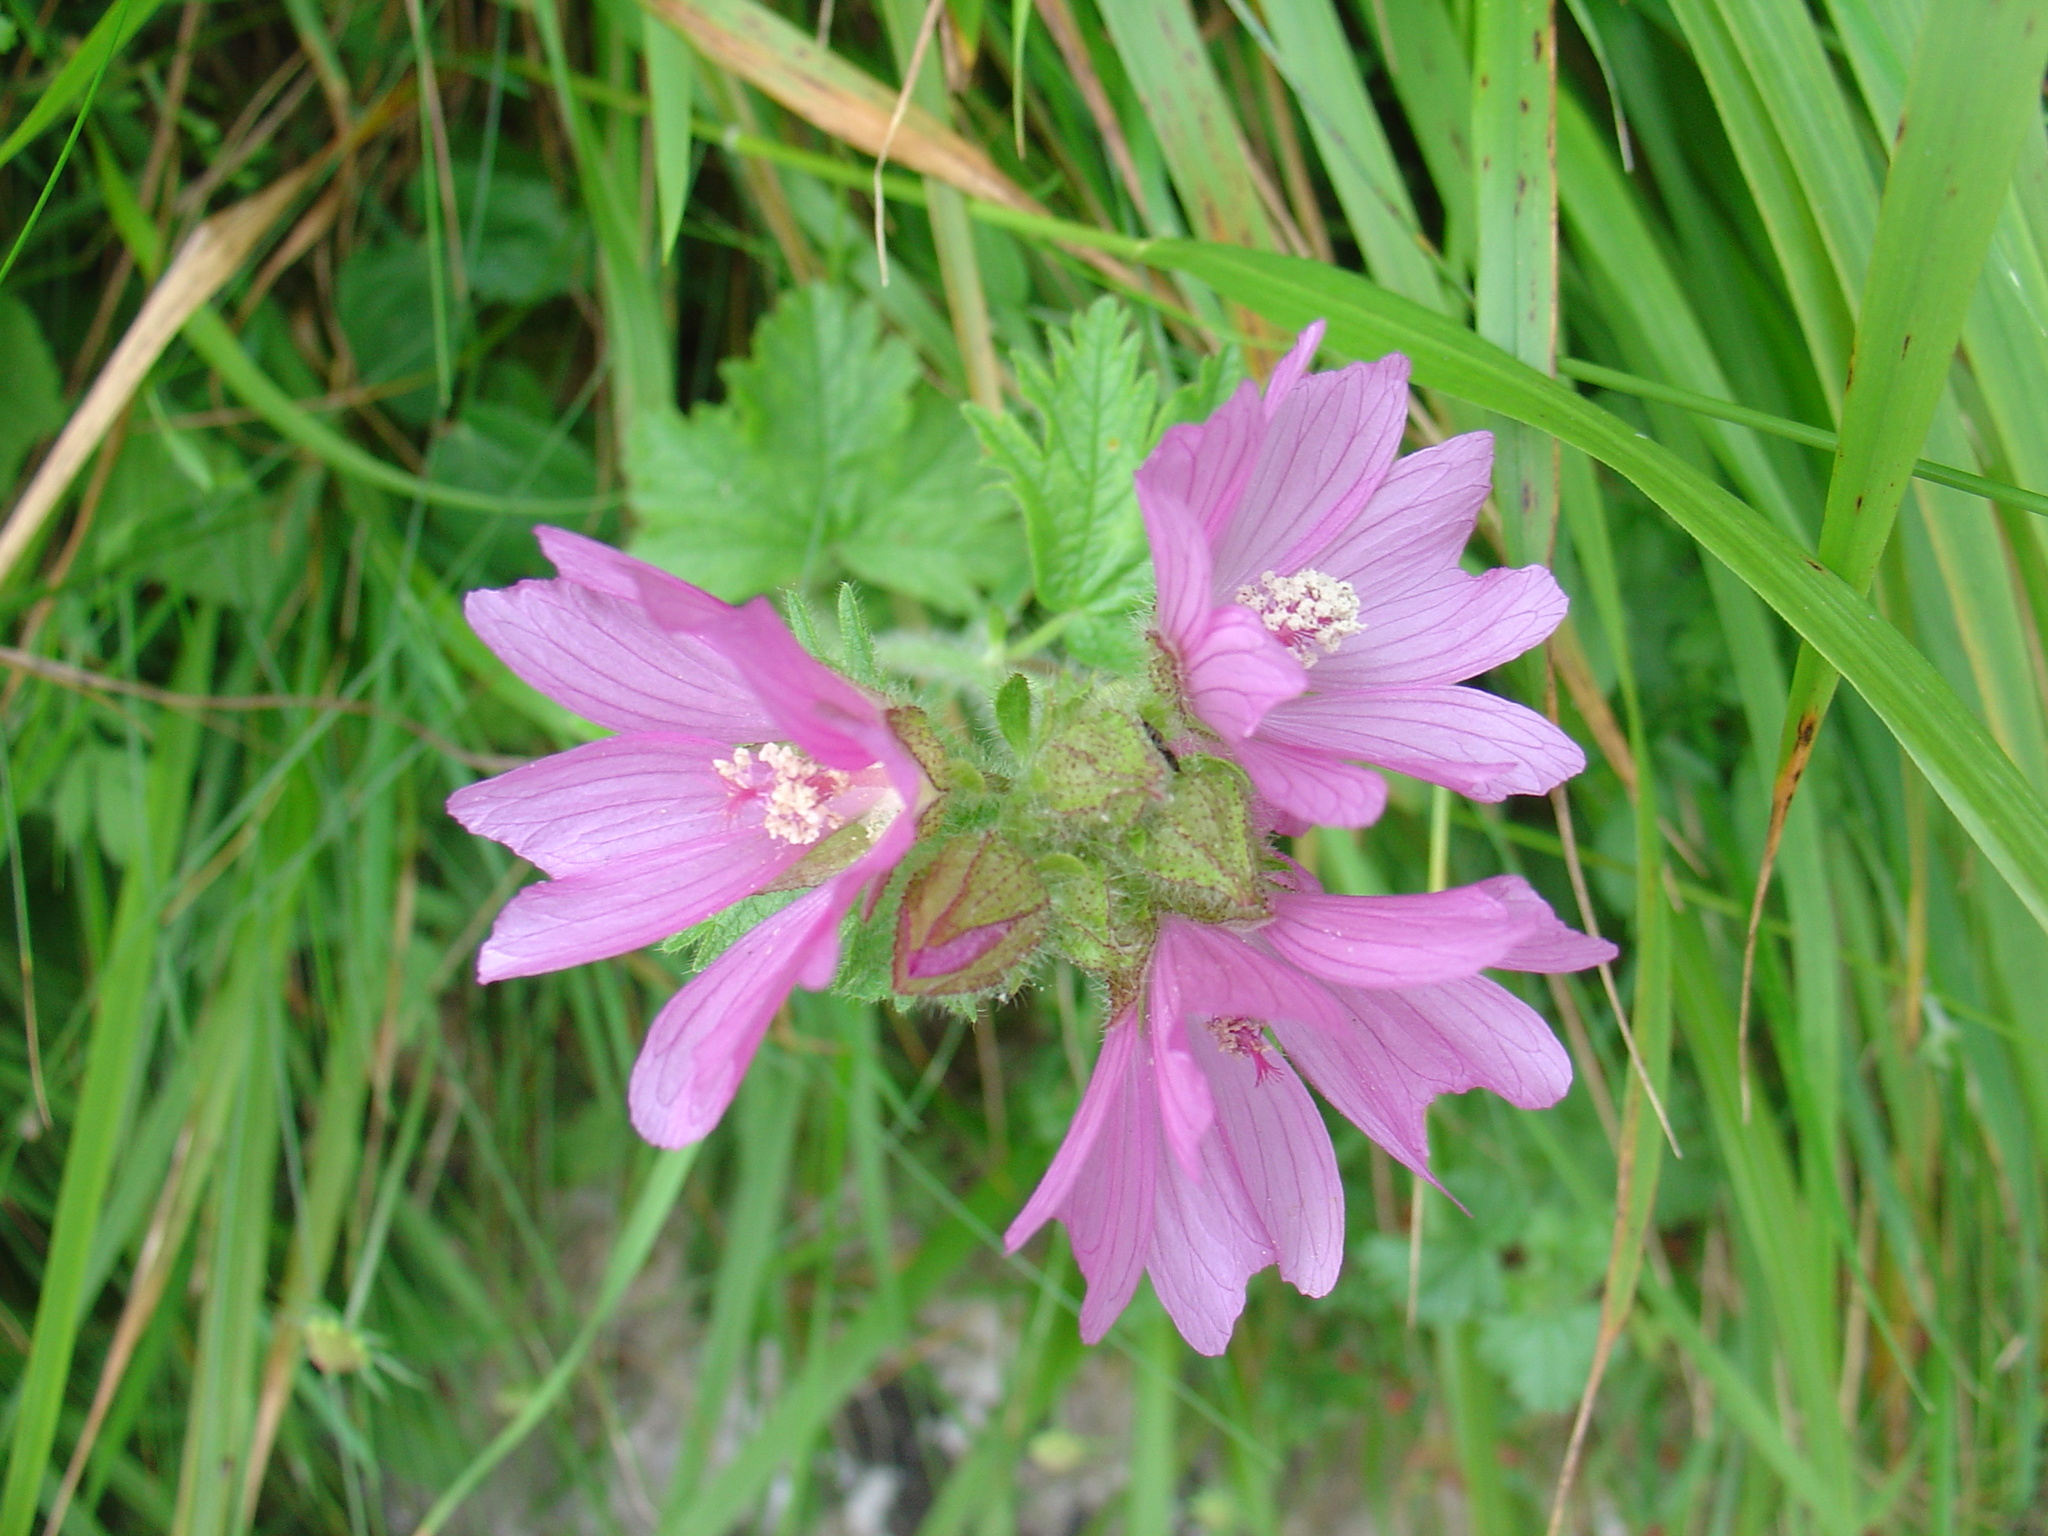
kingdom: Plantae
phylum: Tracheophyta
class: Magnoliopsida
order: Malvales
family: Malvaceae
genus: Malva
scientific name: Malva moschata
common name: Musk mallow
